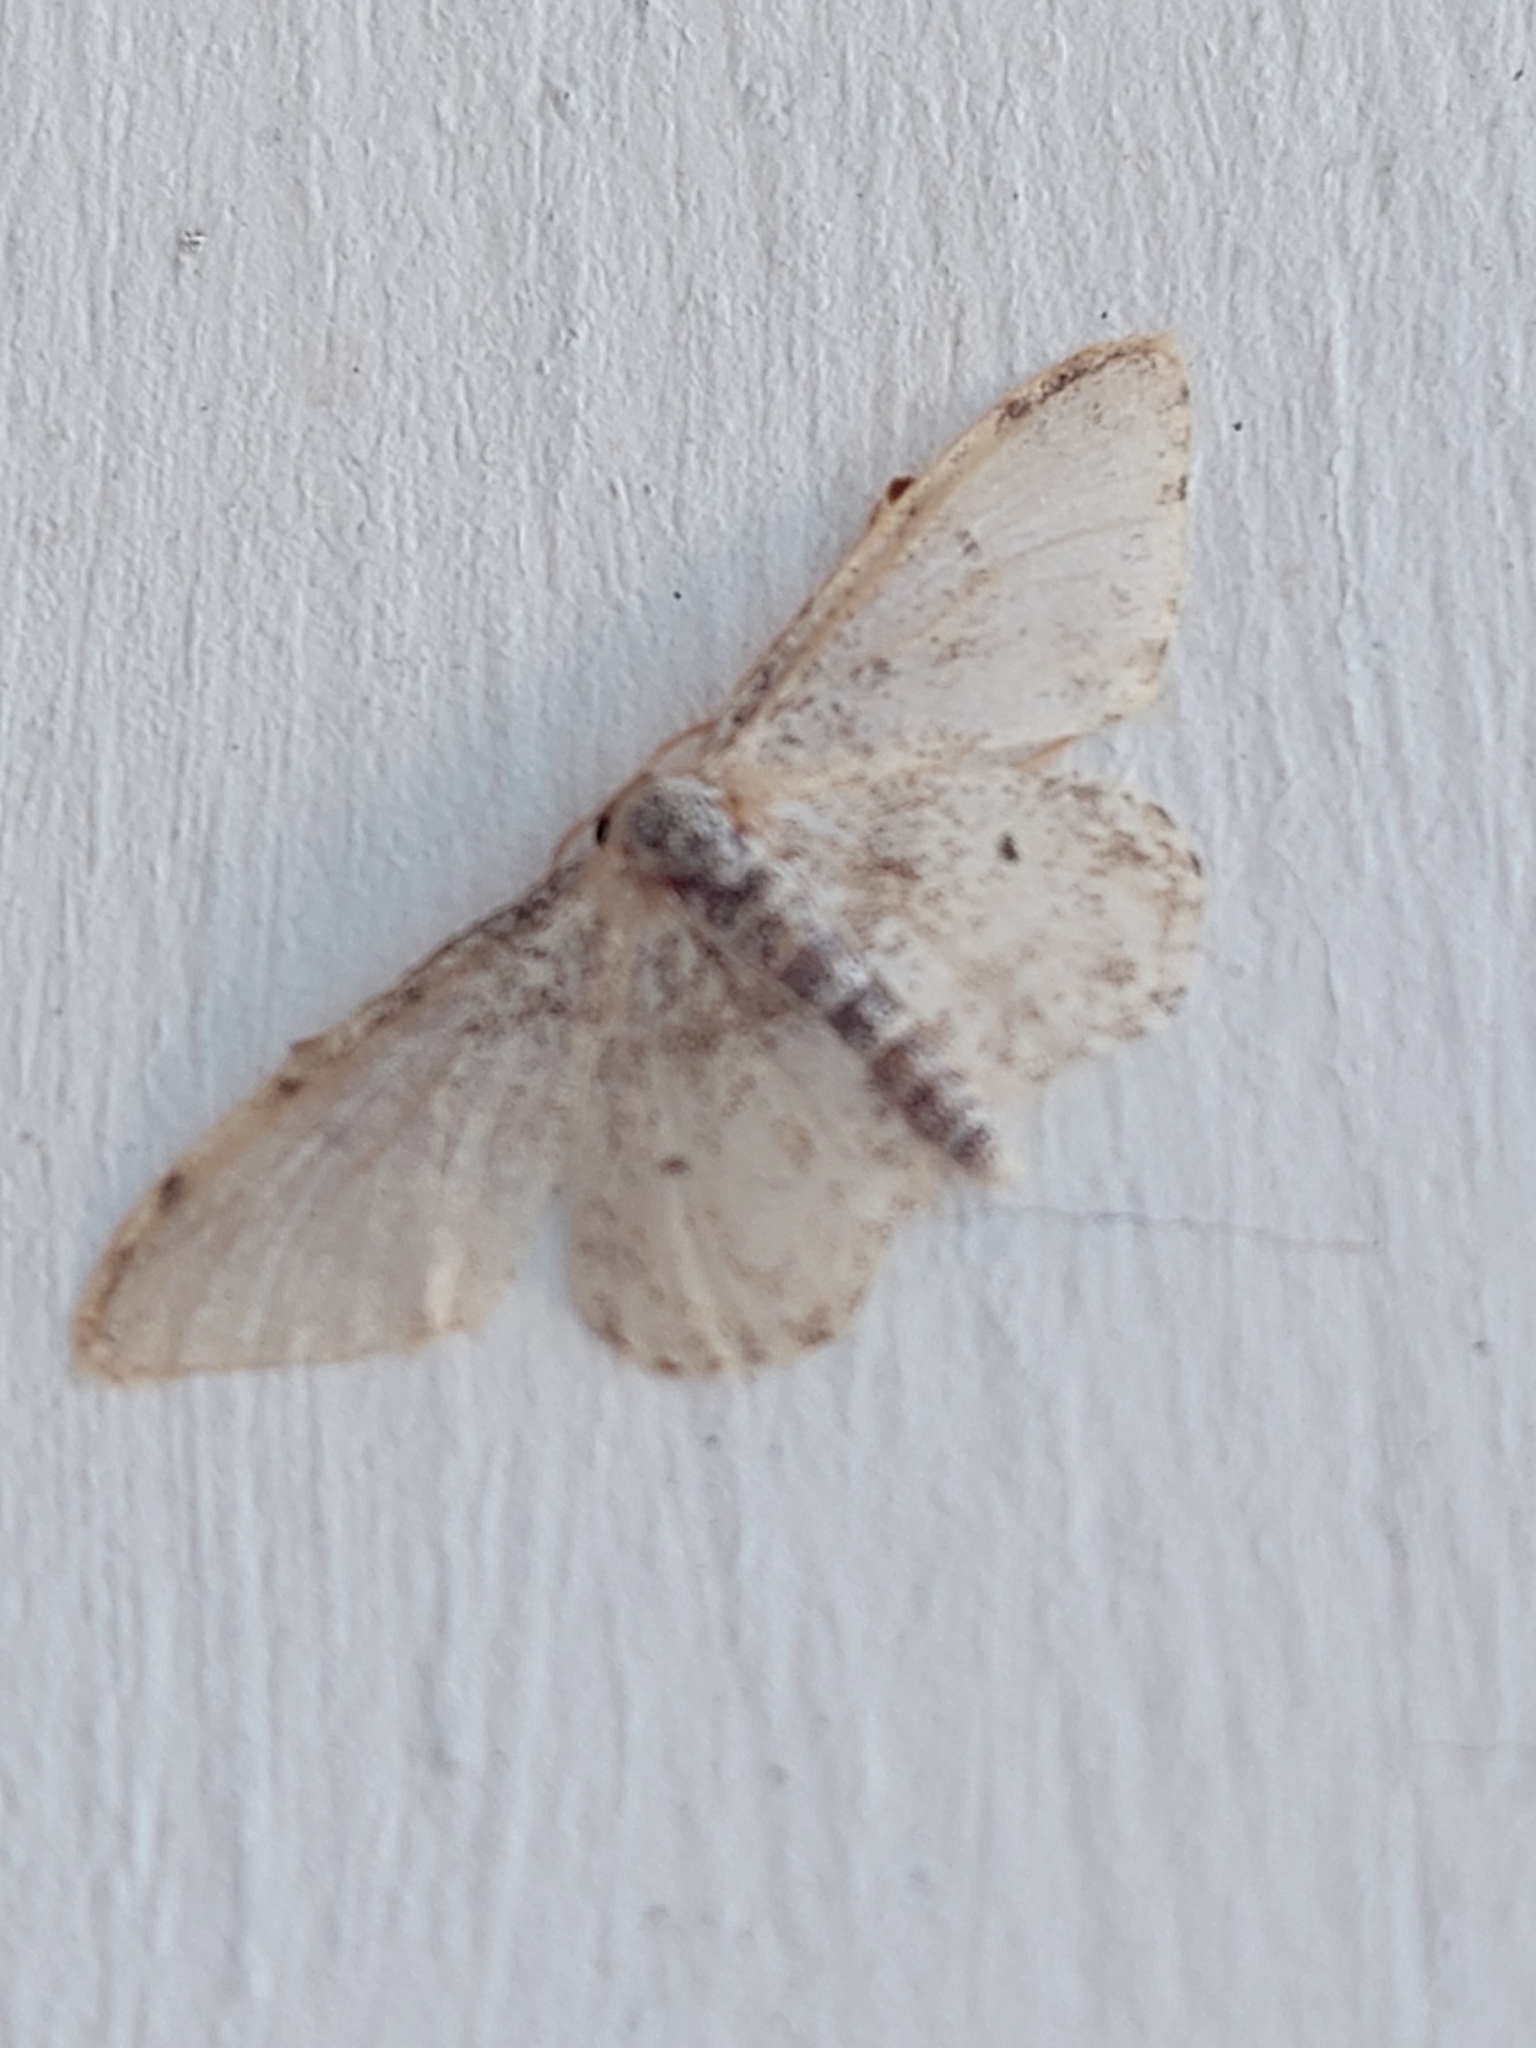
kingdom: Animalia
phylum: Arthropoda
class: Insecta
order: Lepidoptera
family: Geometridae
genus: Idaea
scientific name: Idaea camparia
